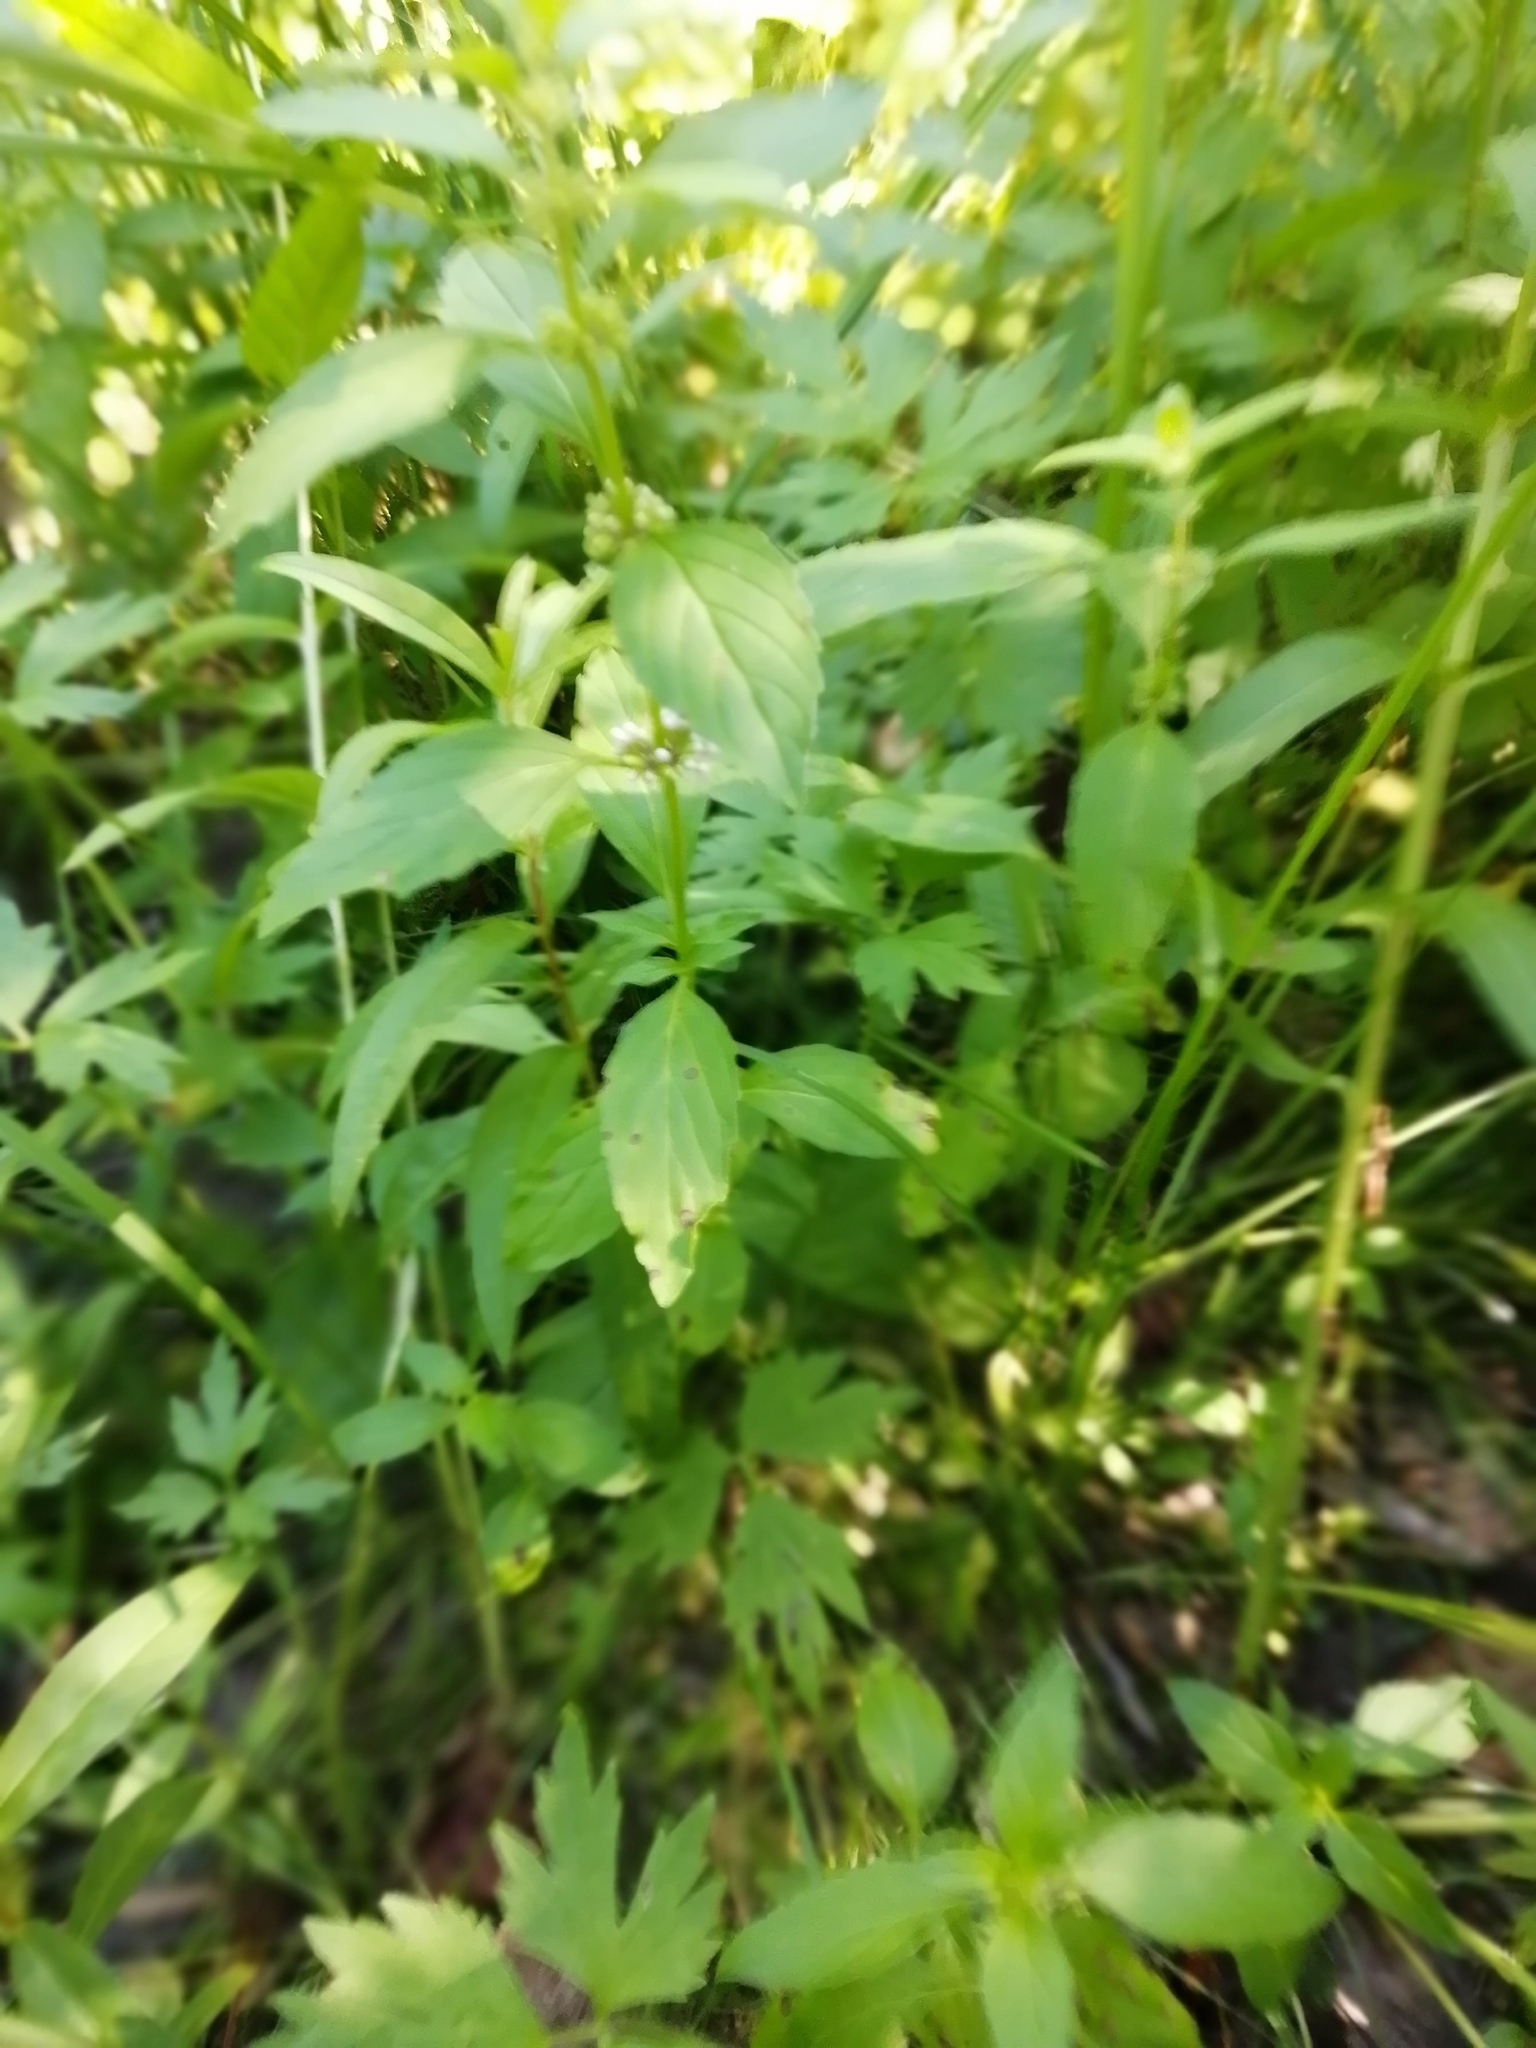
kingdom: Plantae
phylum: Tracheophyta
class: Magnoliopsida
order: Lamiales
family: Lamiaceae
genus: Mentha
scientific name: Mentha arvensis
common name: Corn mint
